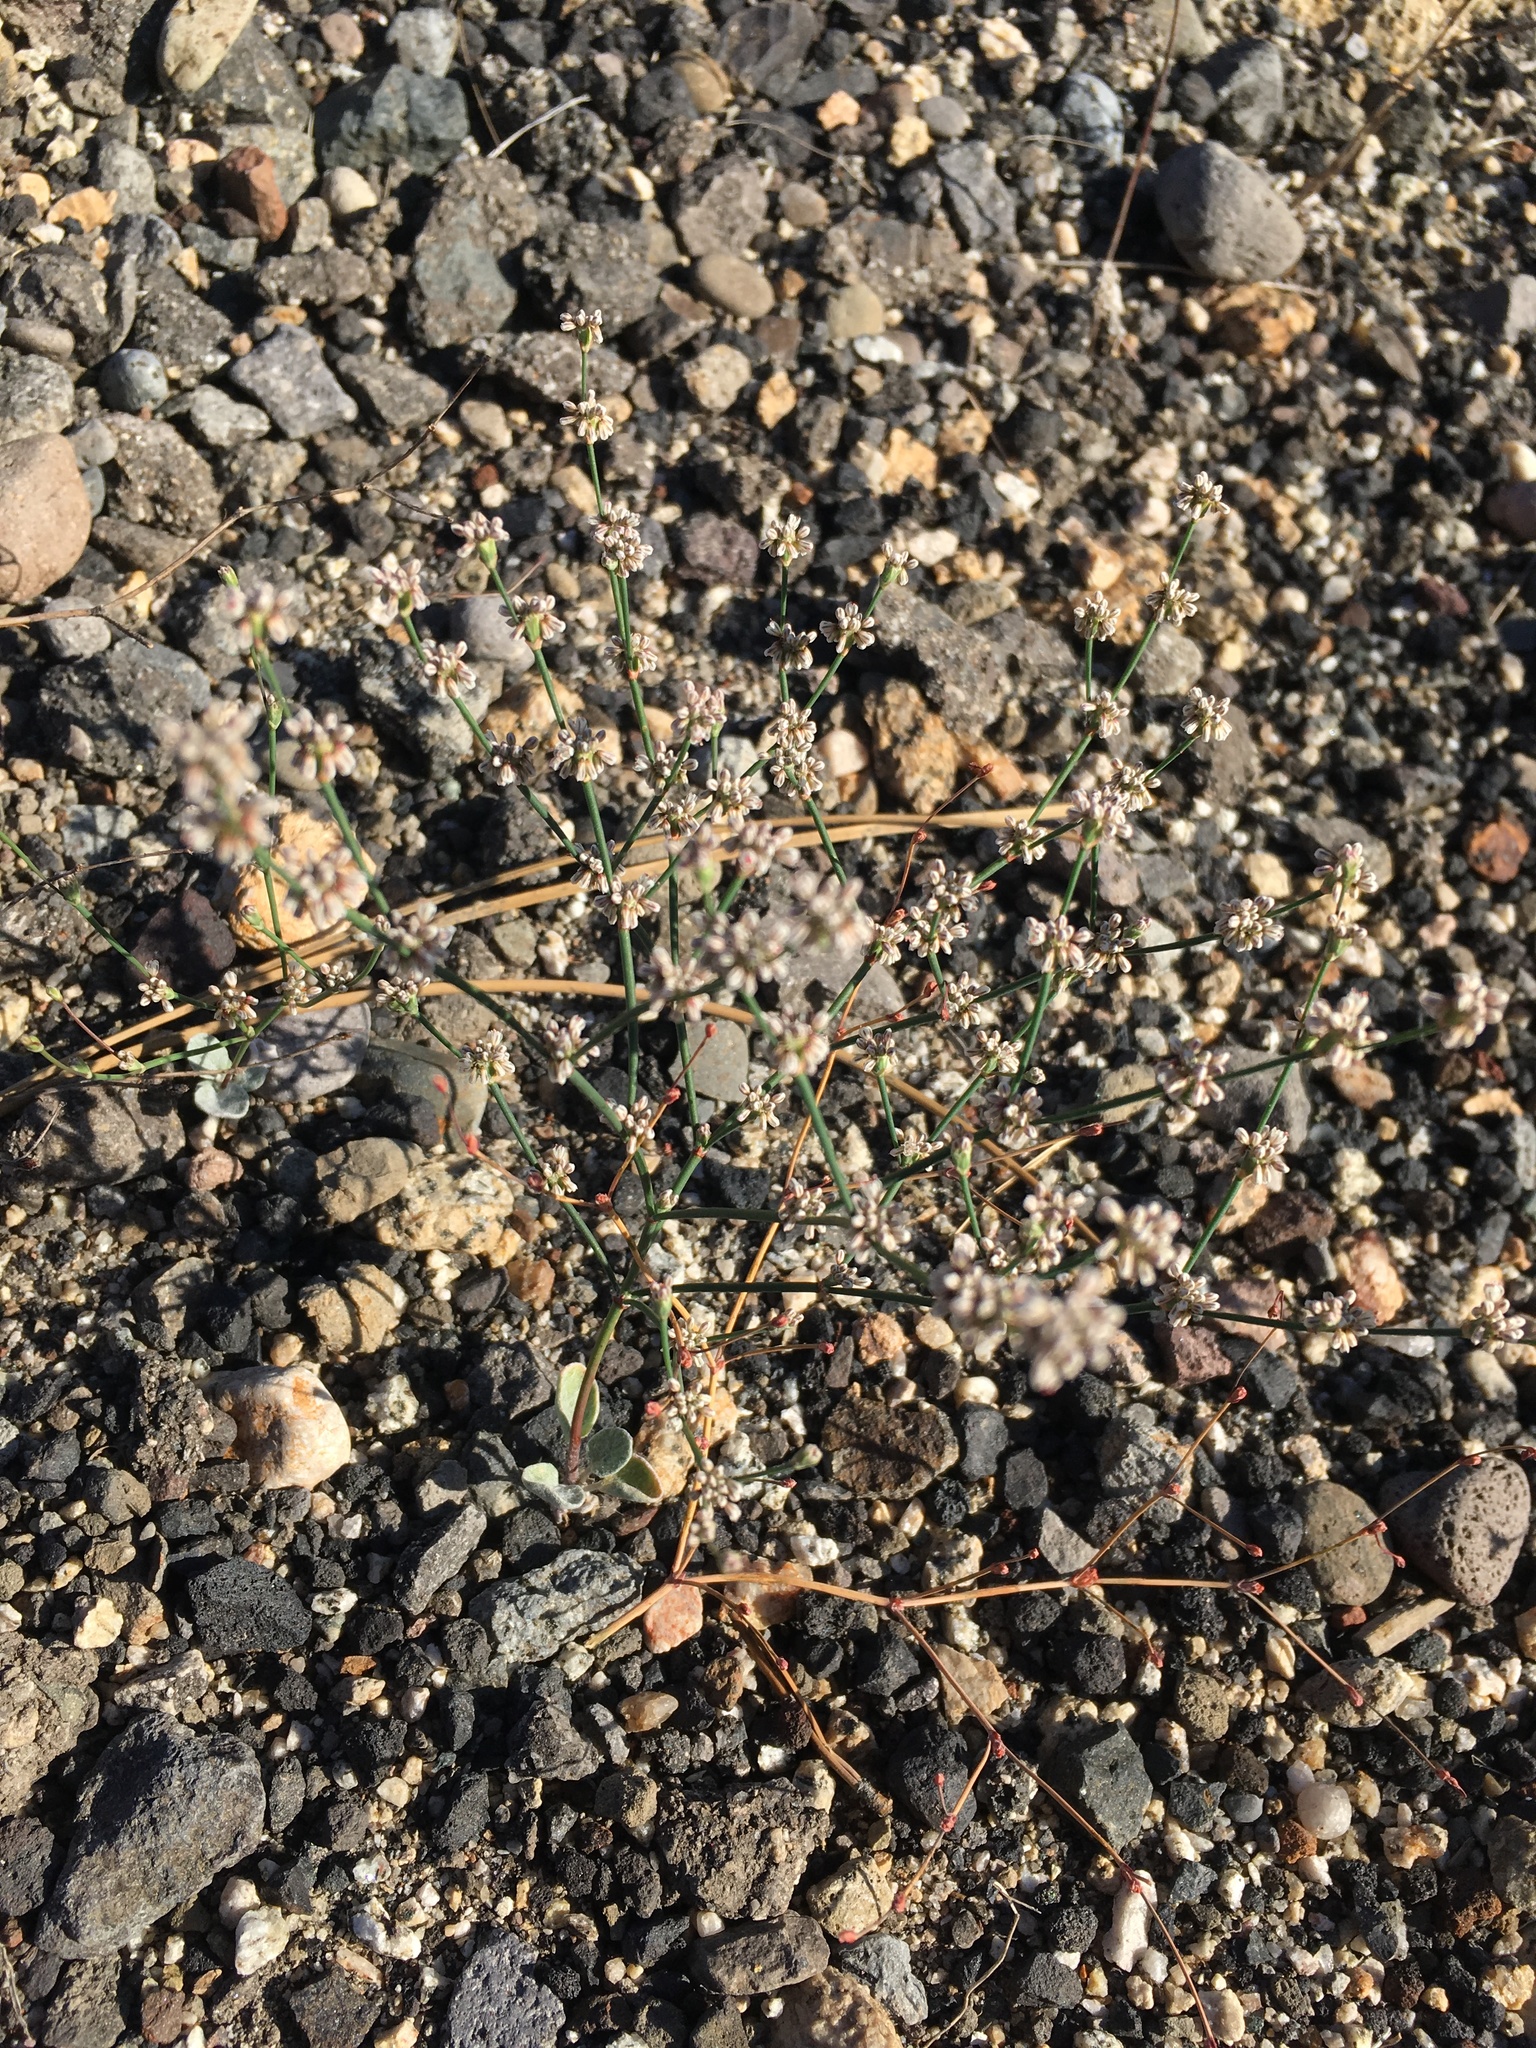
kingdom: Plantae
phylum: Tracheophyta
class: Magnoliopsida
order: Caryophyllales
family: Polygonaceae
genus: Eriogonum
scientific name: Eriogonum luteolum
